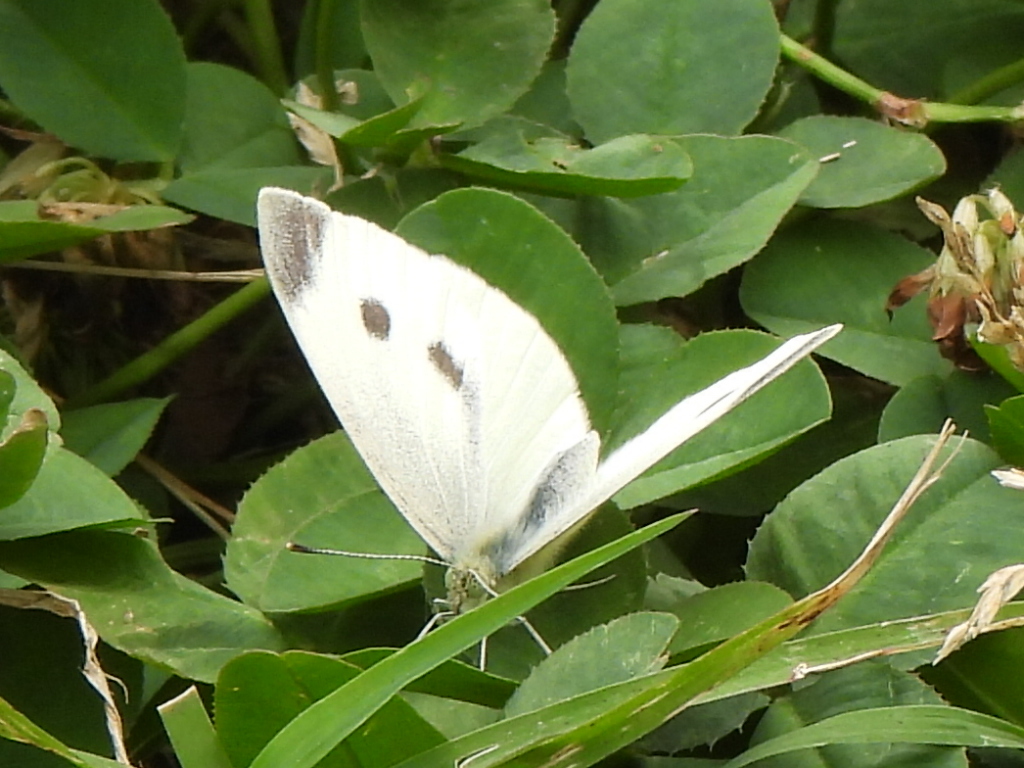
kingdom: Animalia
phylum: Arthropoda
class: Insecta
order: Lepidoptera
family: Pieridae
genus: Pieris
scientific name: Pieris rapae
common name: Small white
